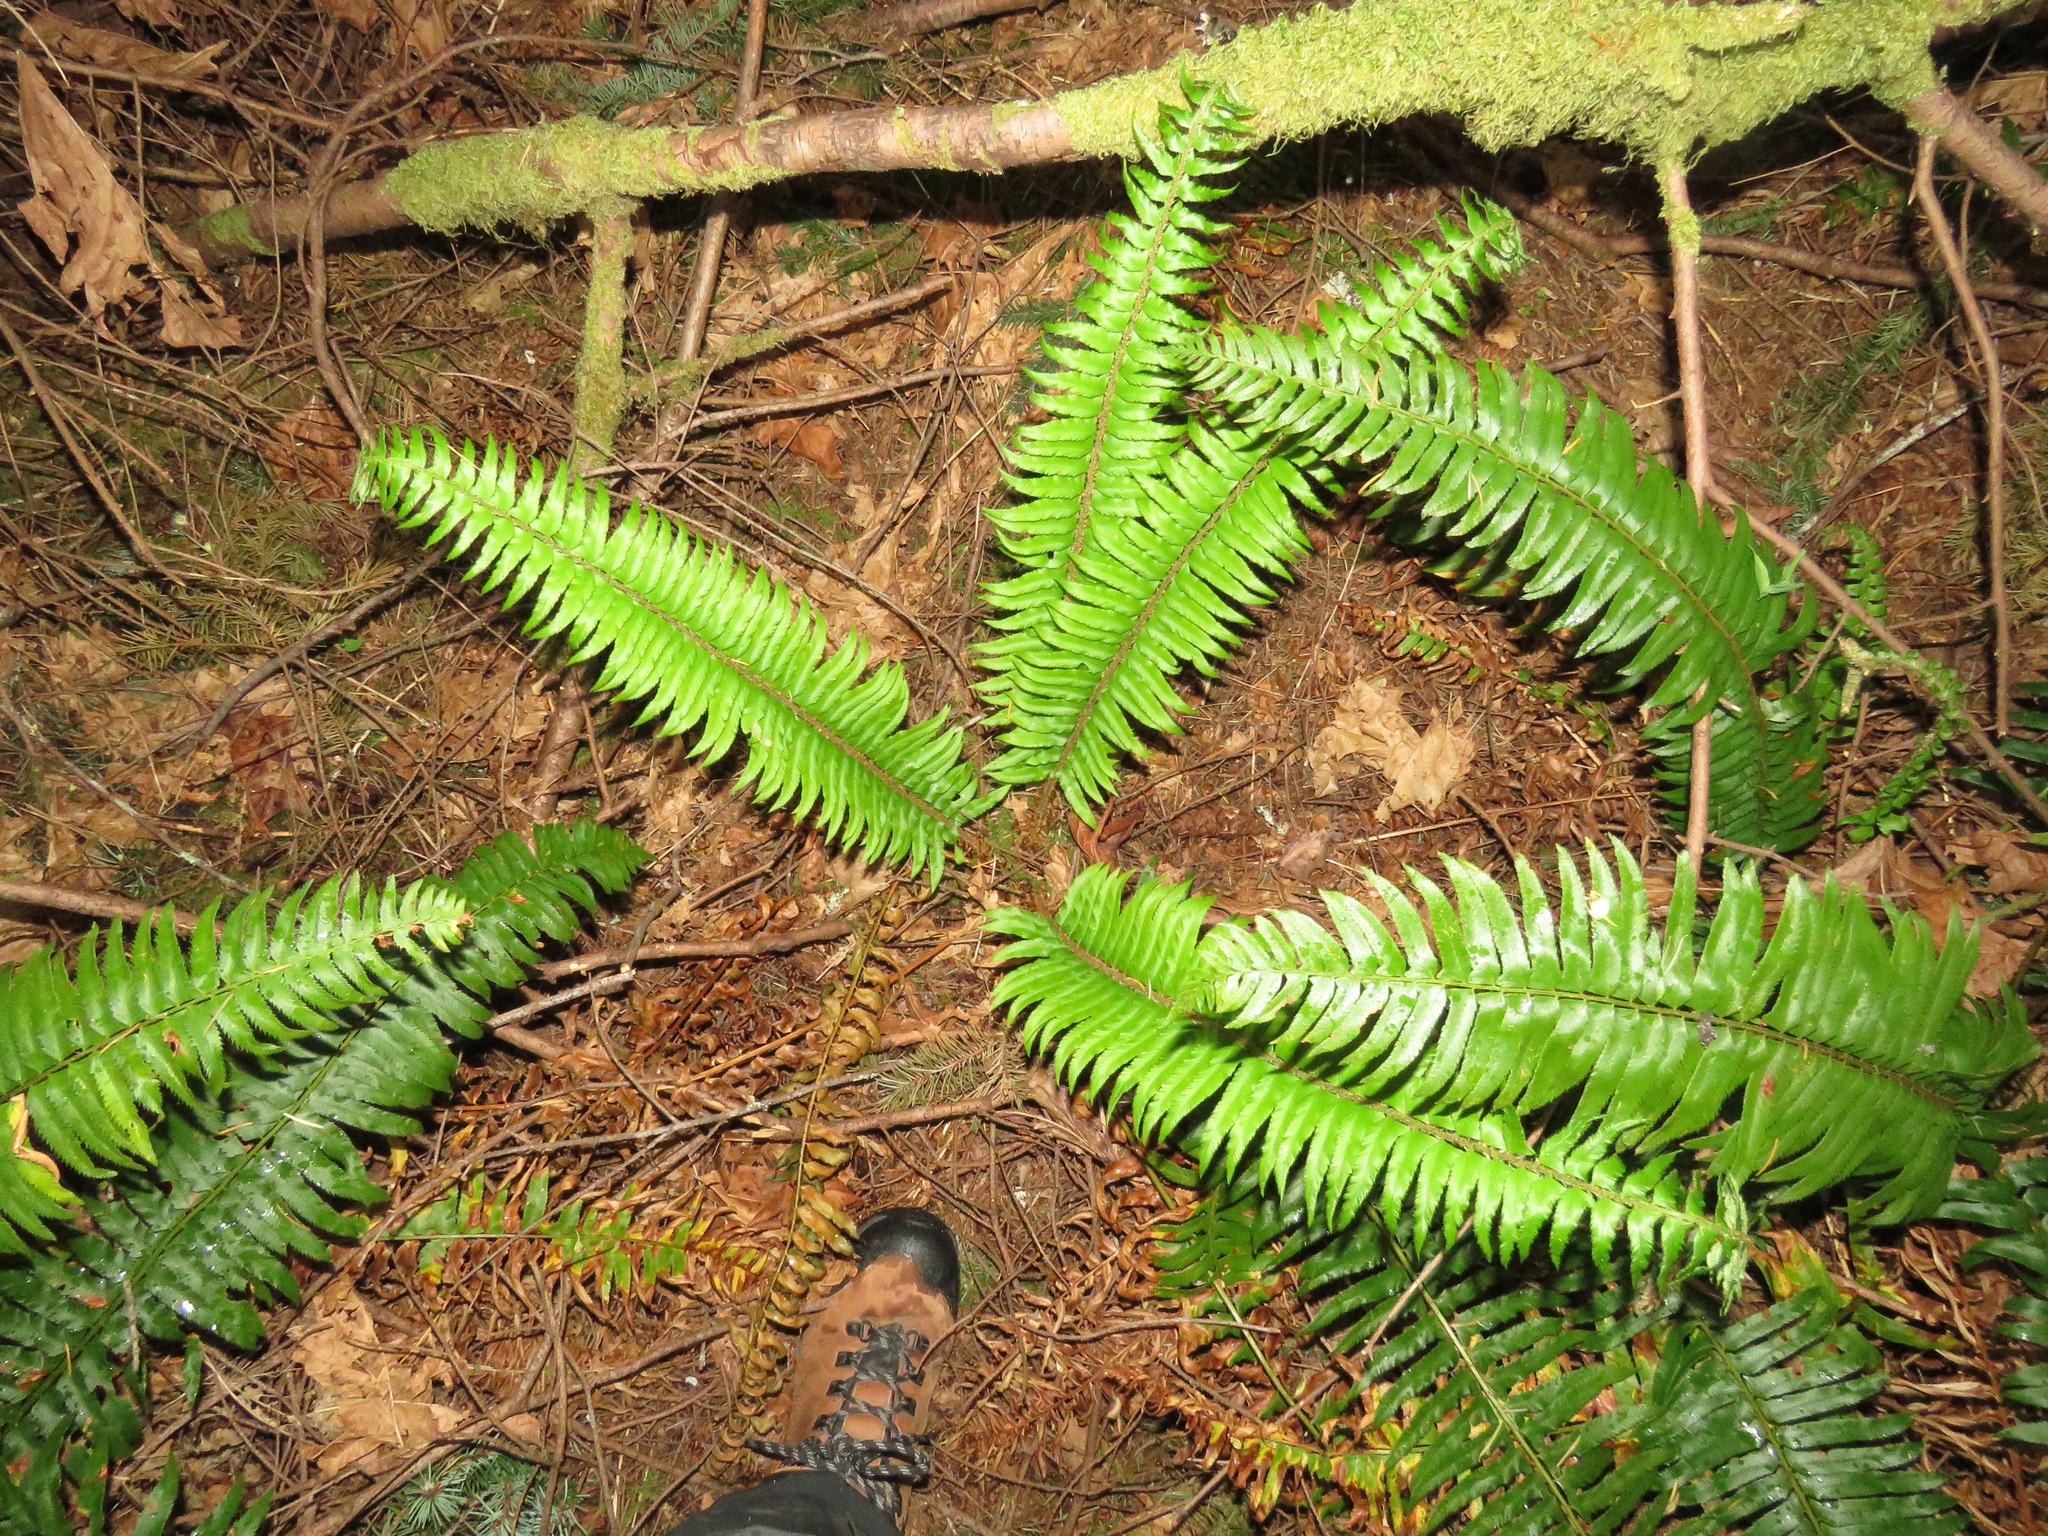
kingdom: Plantae
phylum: Tracheophyta
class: Polypodiopsida
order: Polypodiales
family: Dryopteridaceae
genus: Polystichum
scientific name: Polystichum munitum
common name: Western sword-fern
